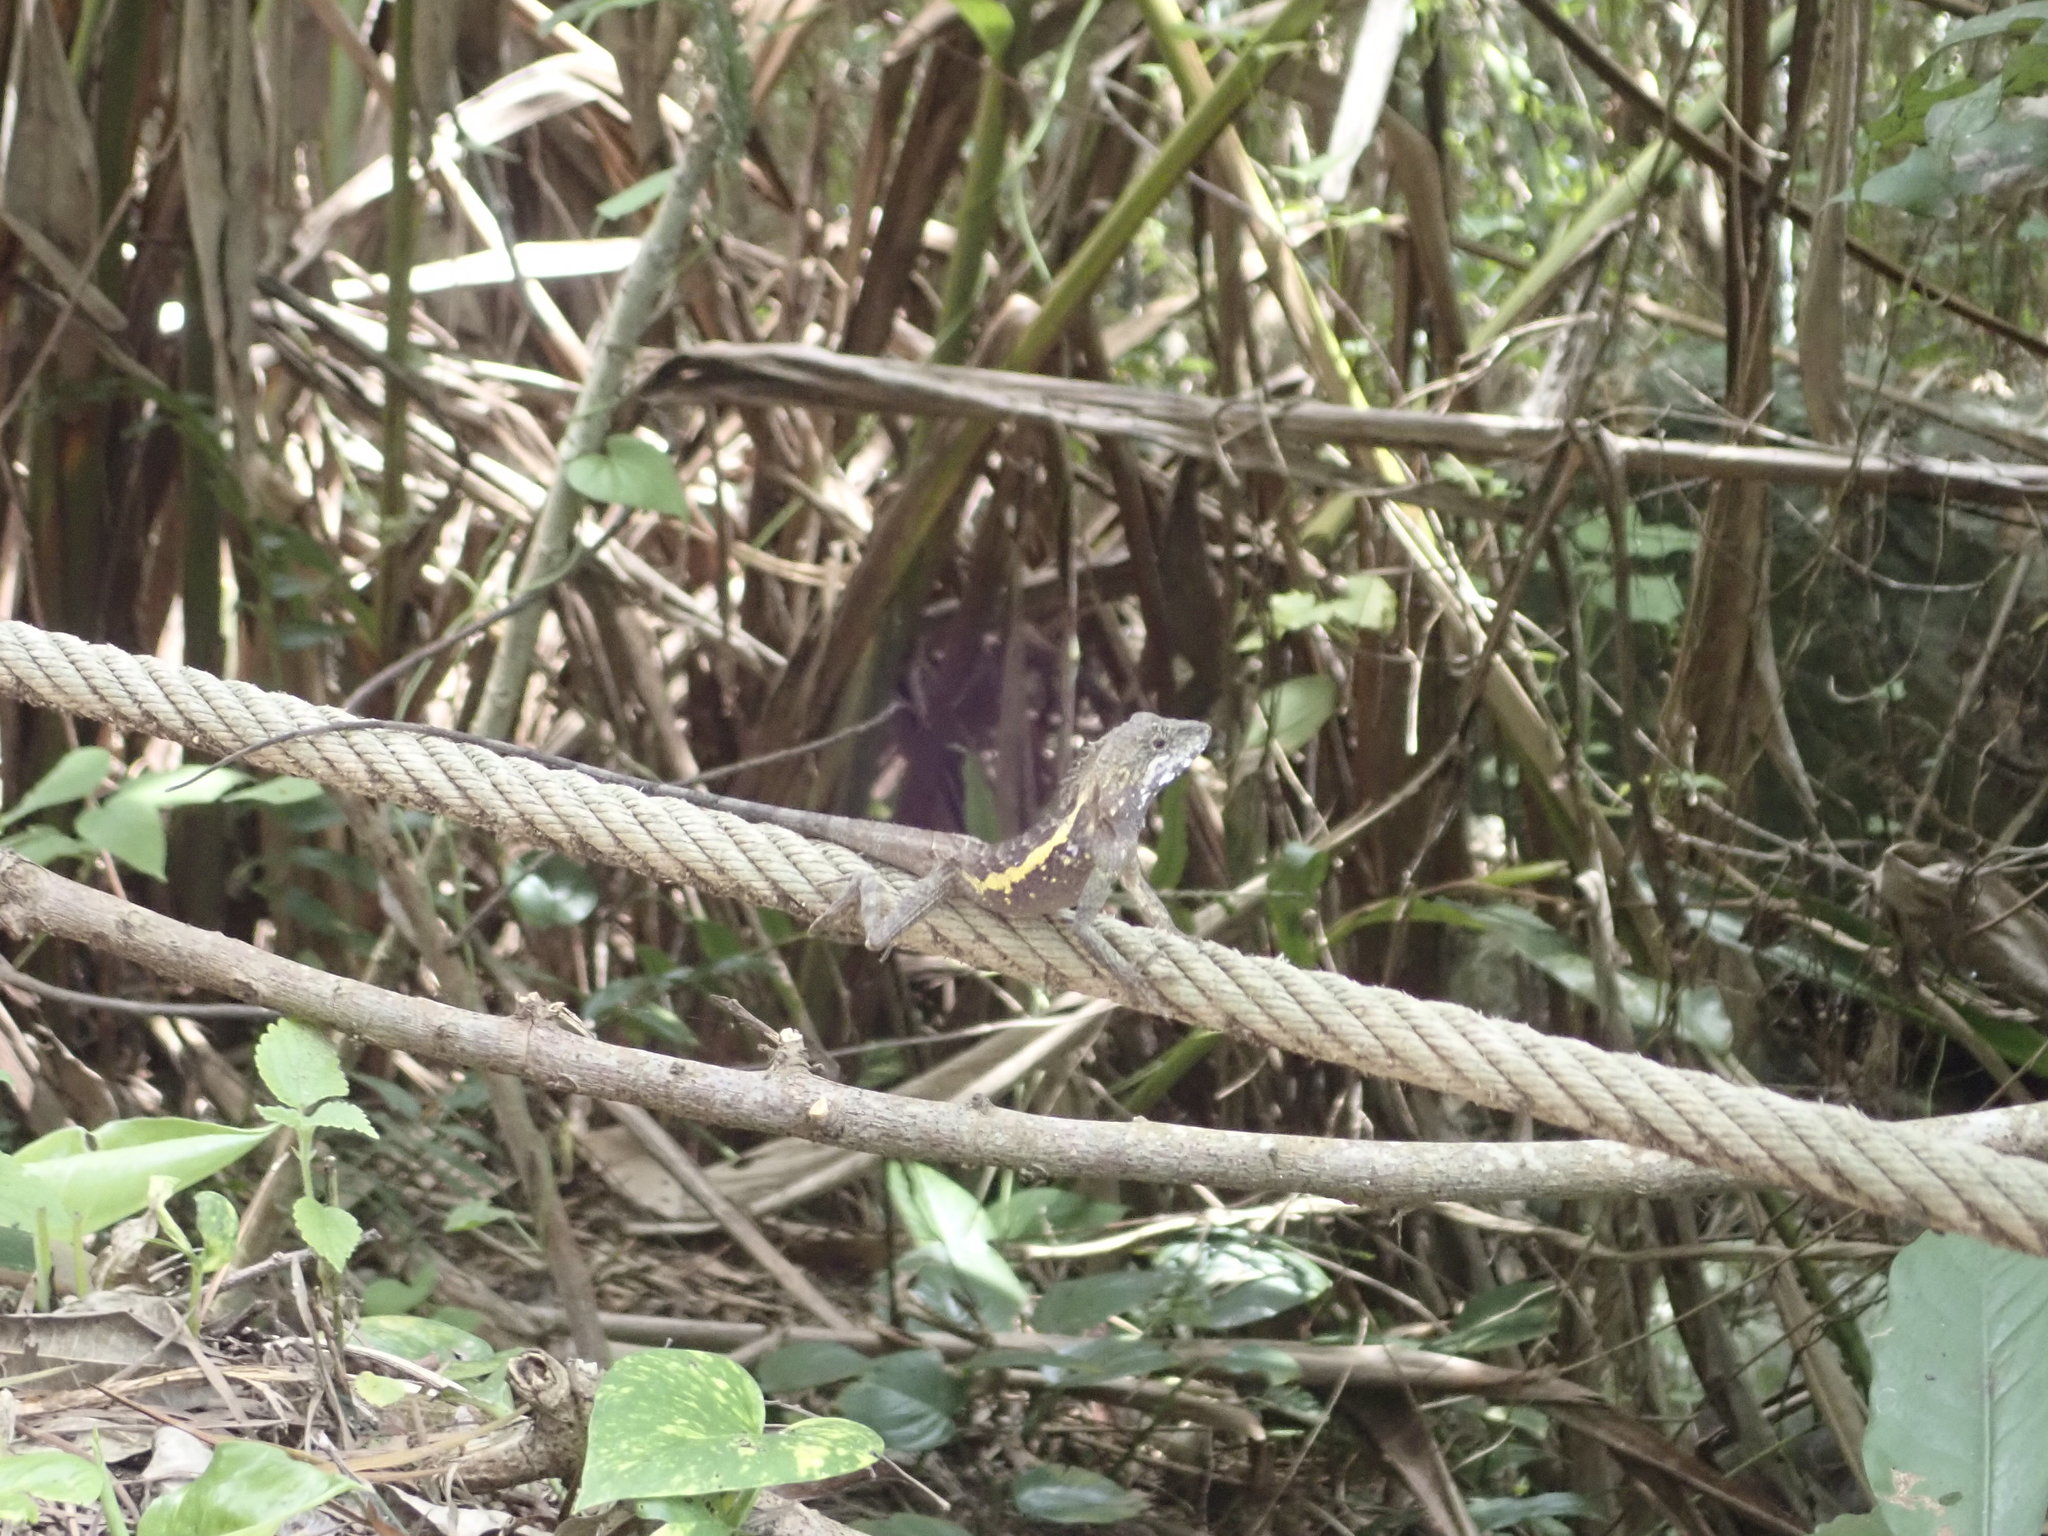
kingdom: Animalia
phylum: Chordata
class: Squamata
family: Agamidae
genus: Diploderma
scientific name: Diploderma swinhonis
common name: Taiwan japalure
